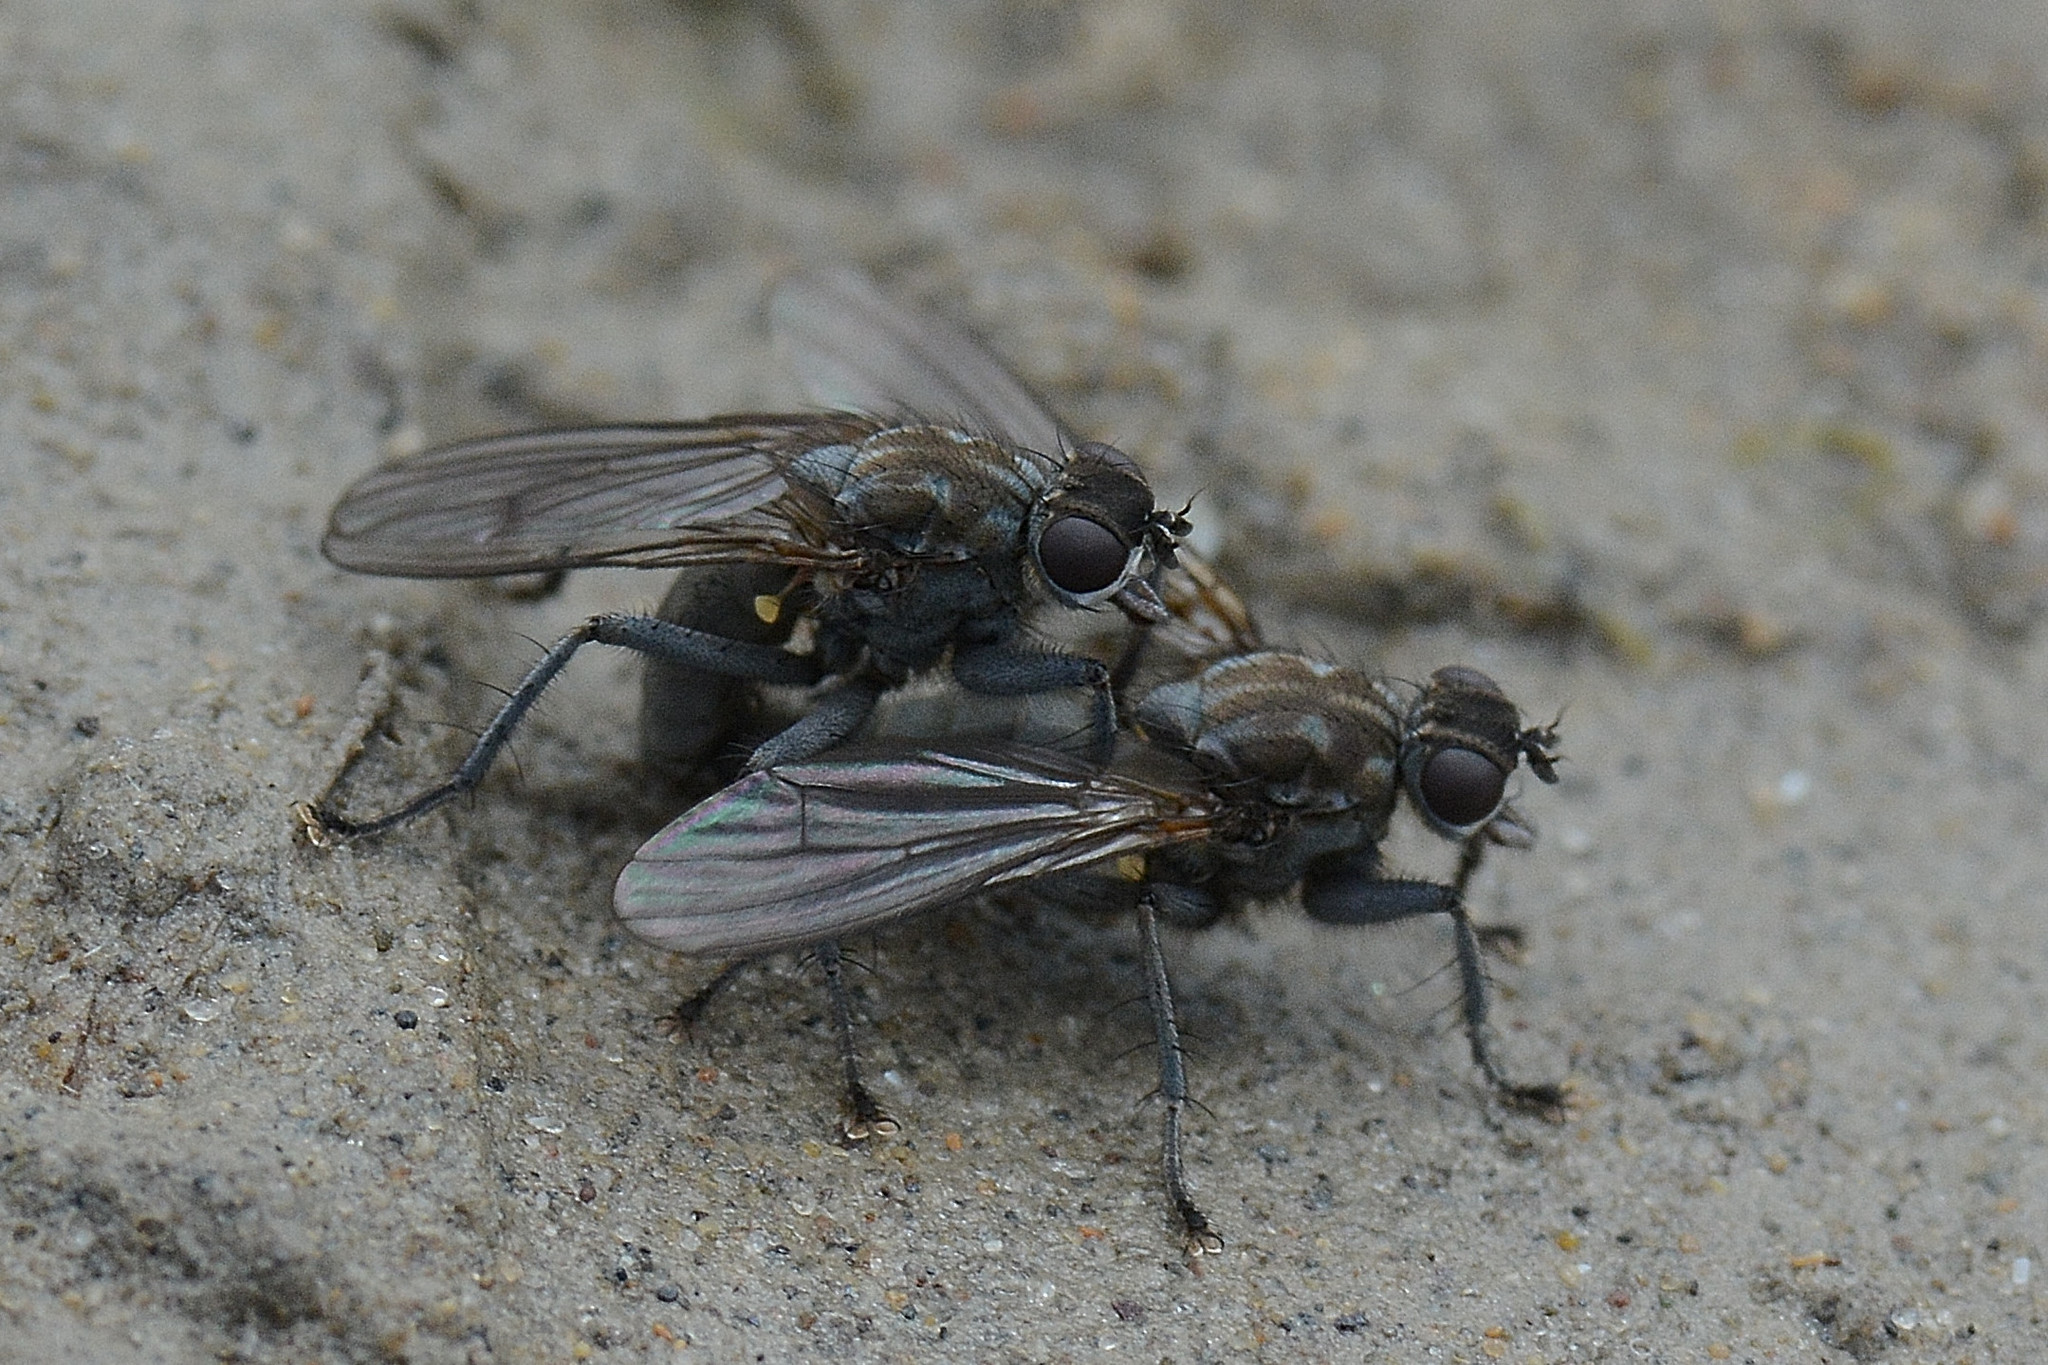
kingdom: Animalia
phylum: Arthropoda
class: Insecta
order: Diptera
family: Scathophagidae
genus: Ceratinostoma
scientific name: Ceratinostoma ostiorum
